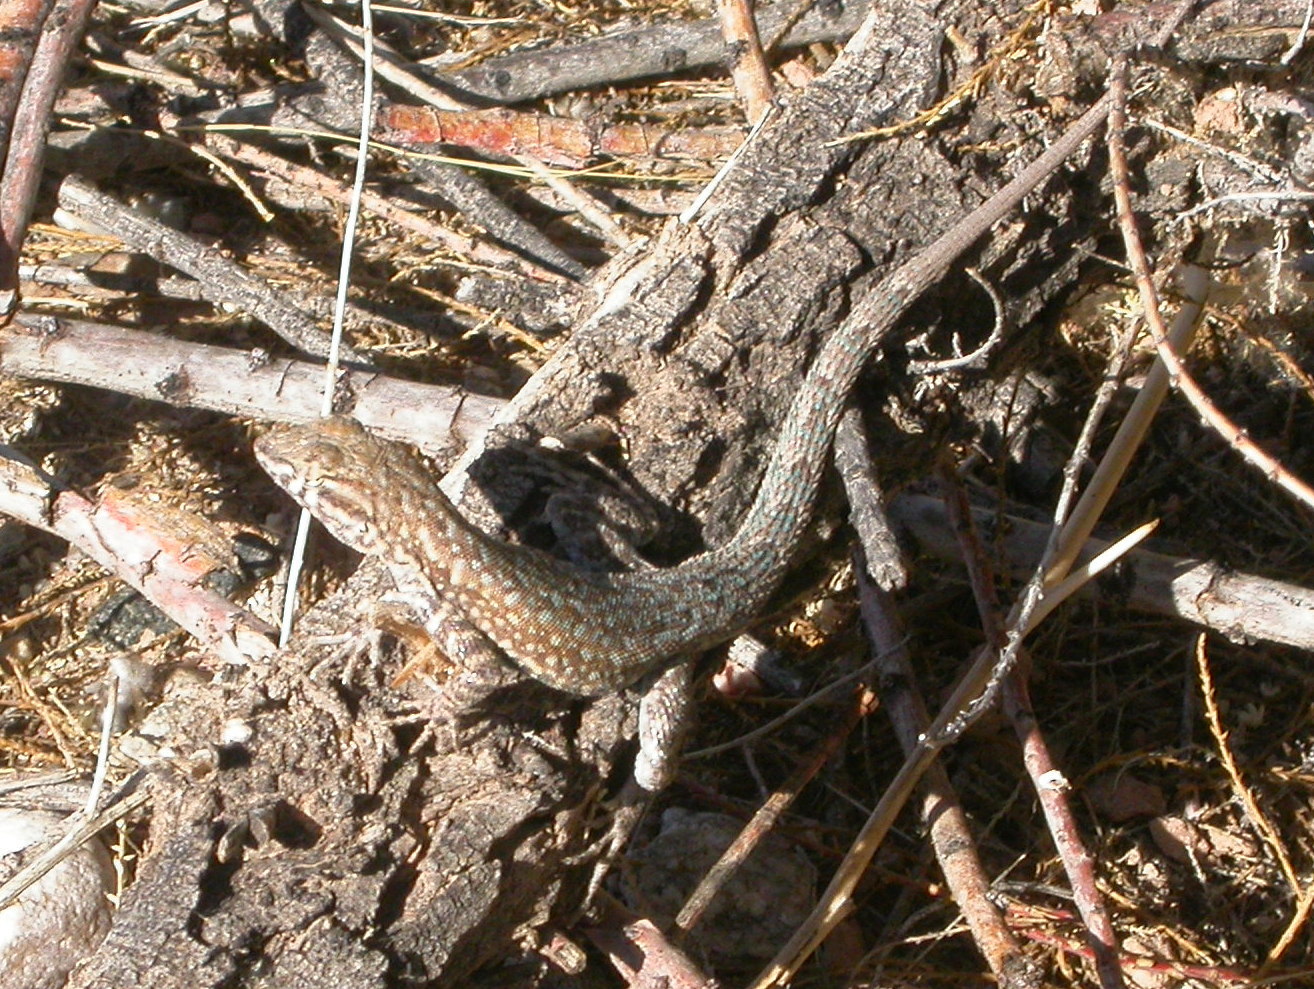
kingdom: Animalia
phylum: Chordata
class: Squamata
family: Phrynosomatidae
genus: Uta
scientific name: Uta stansburiana
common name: Side-blotched lizard
